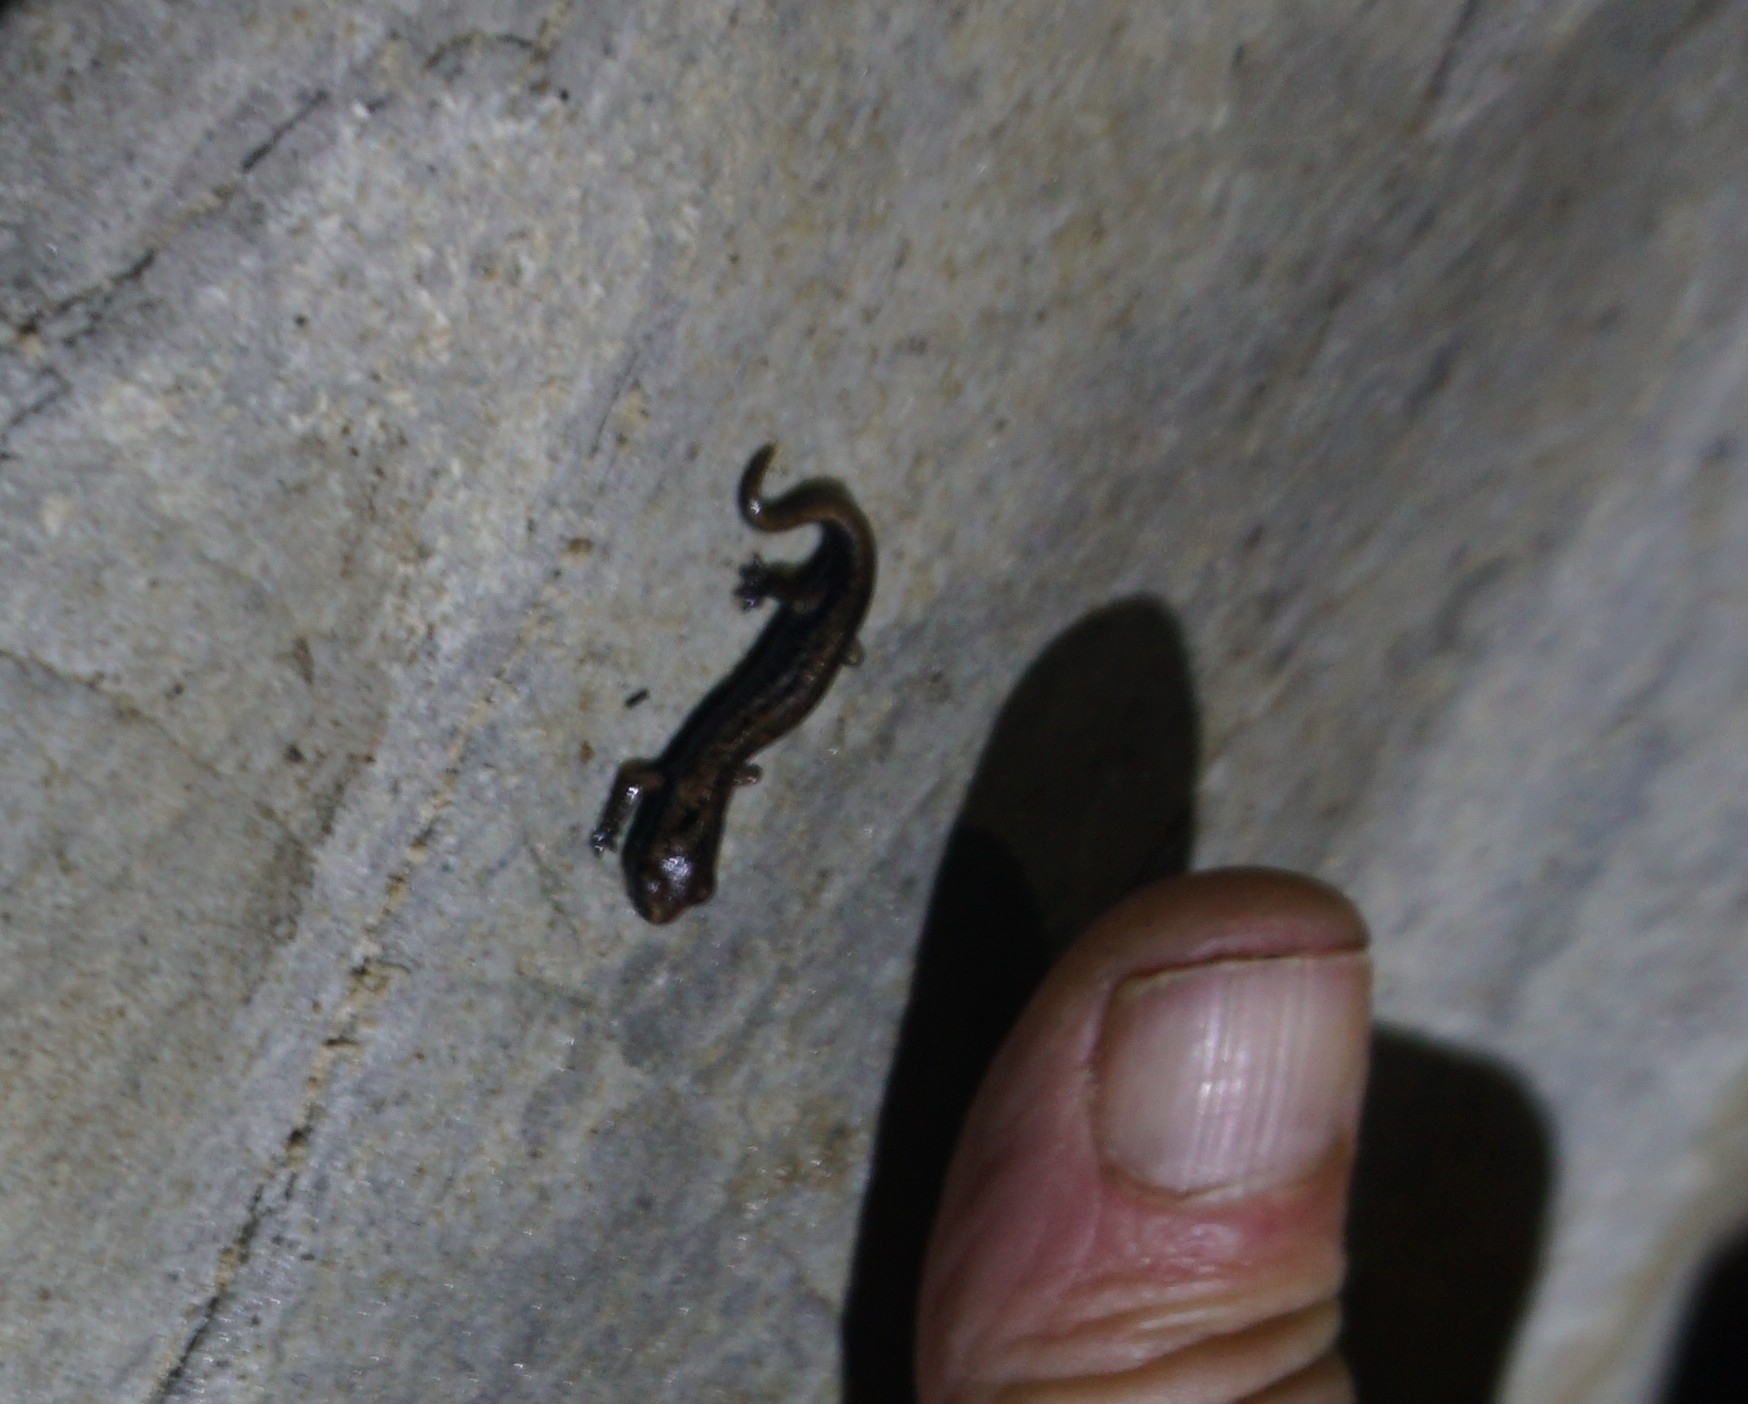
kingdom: Animalia
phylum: Chordata
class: Amphibia
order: Caudata
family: Plethodontidae
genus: Speleomantes
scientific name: Speleomantes ambrosii
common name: Ambrosi's cave salamander
